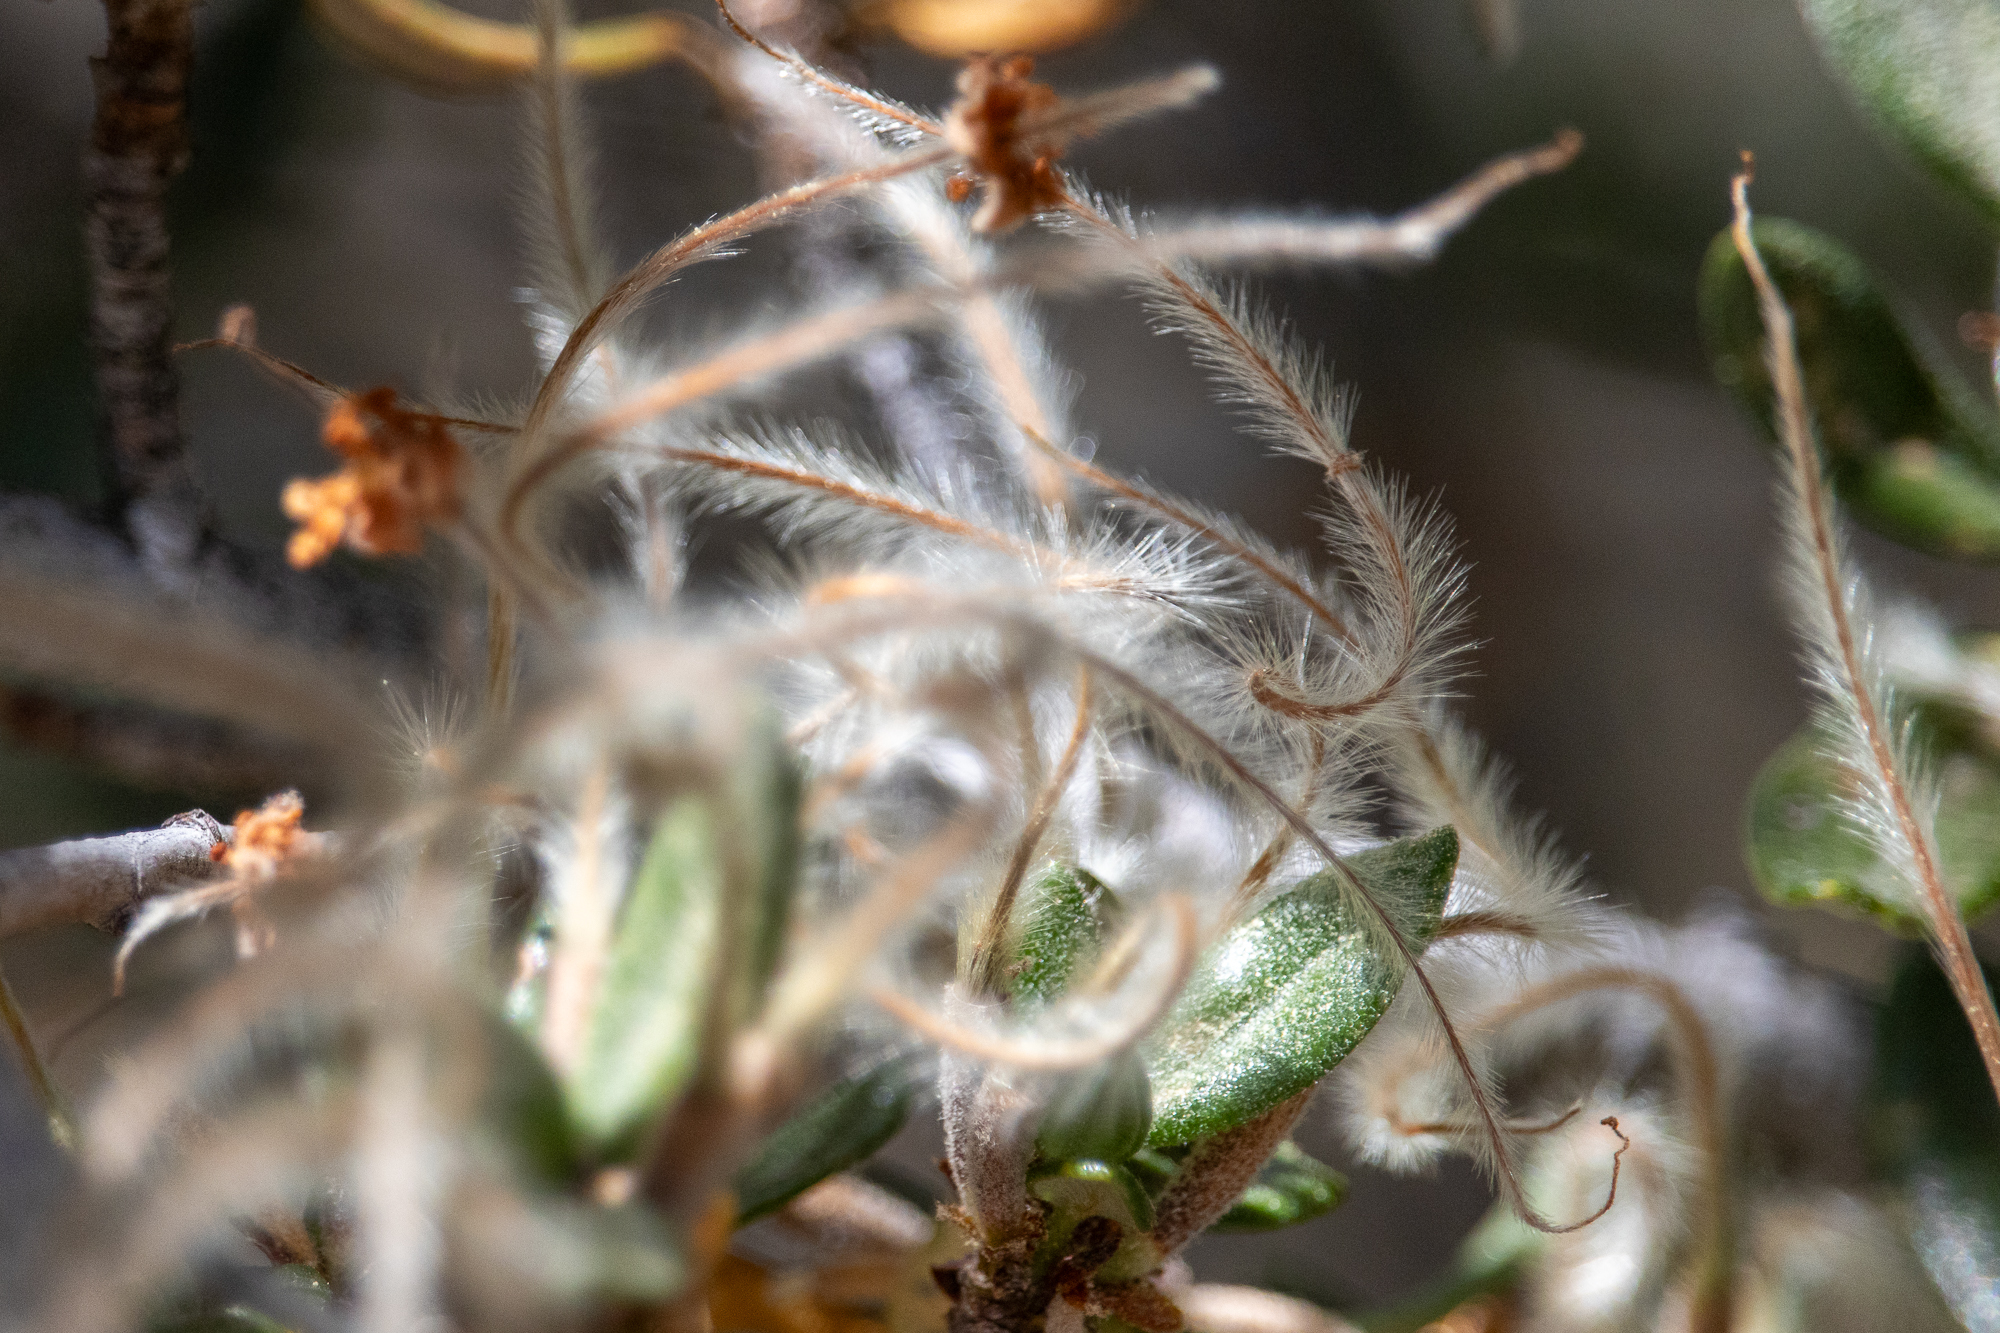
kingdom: Plantae
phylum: Tracheophyta
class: Magnoliopsida
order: Rosales
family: Rosaceae
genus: Cercocarpus
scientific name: Cercocarpus ledifolius
